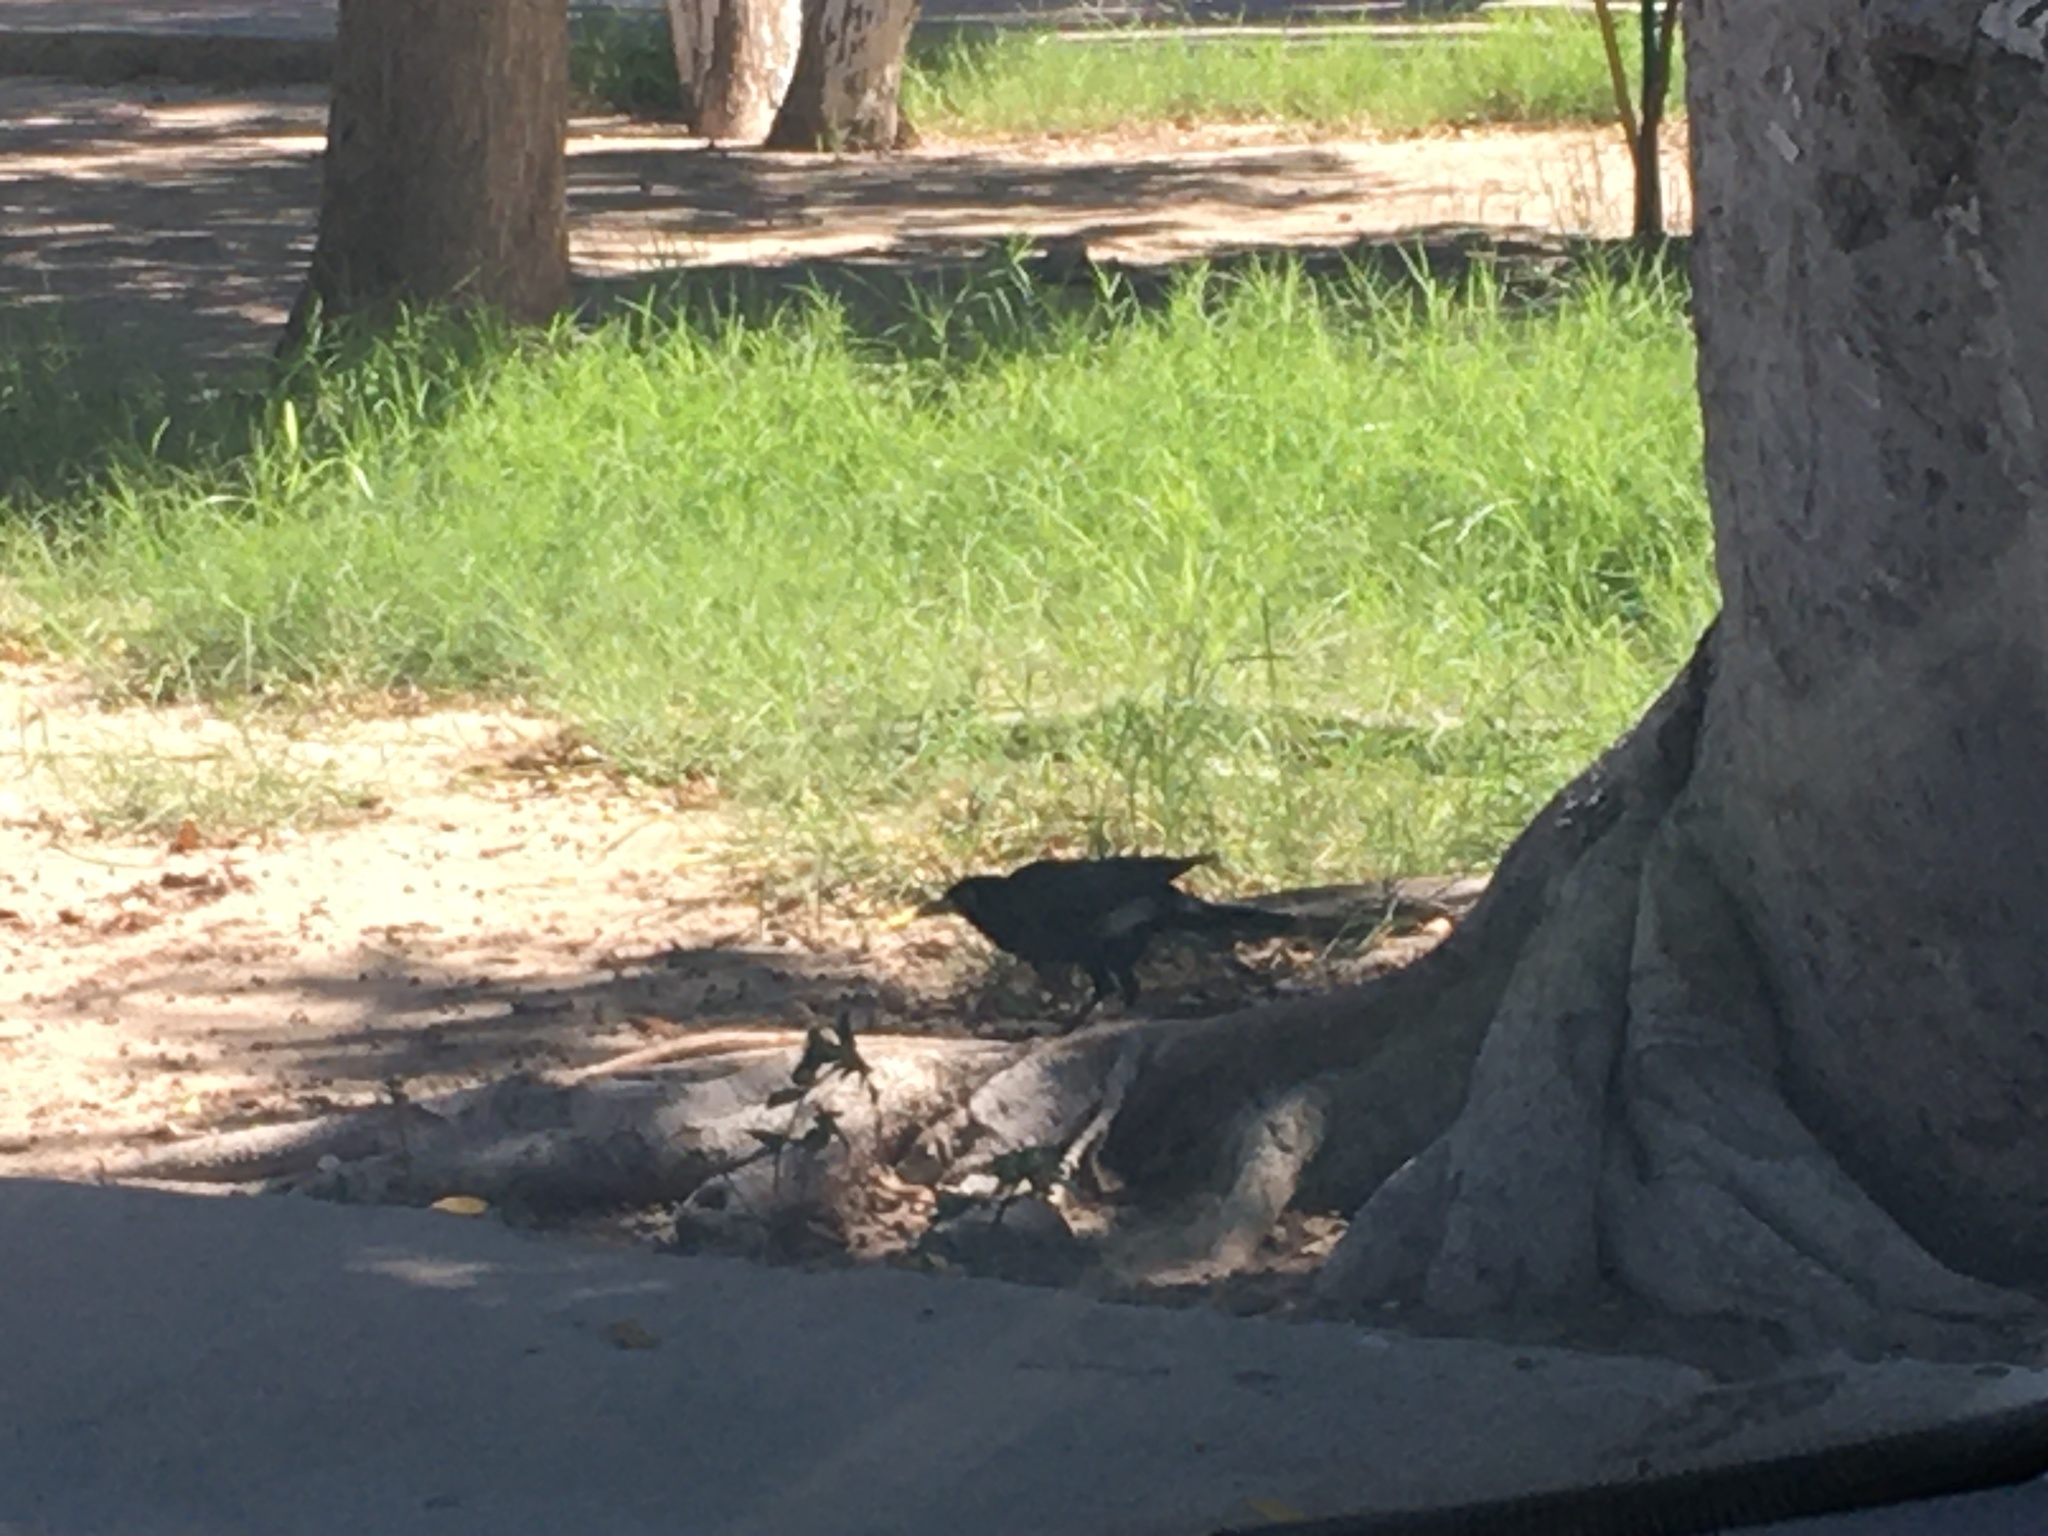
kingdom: Animalia
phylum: Chordata
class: Aves
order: Passeriformes
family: Icteridae
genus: Quiscalus
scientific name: Quiscalus mexicanus
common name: Great-tailed grackle
